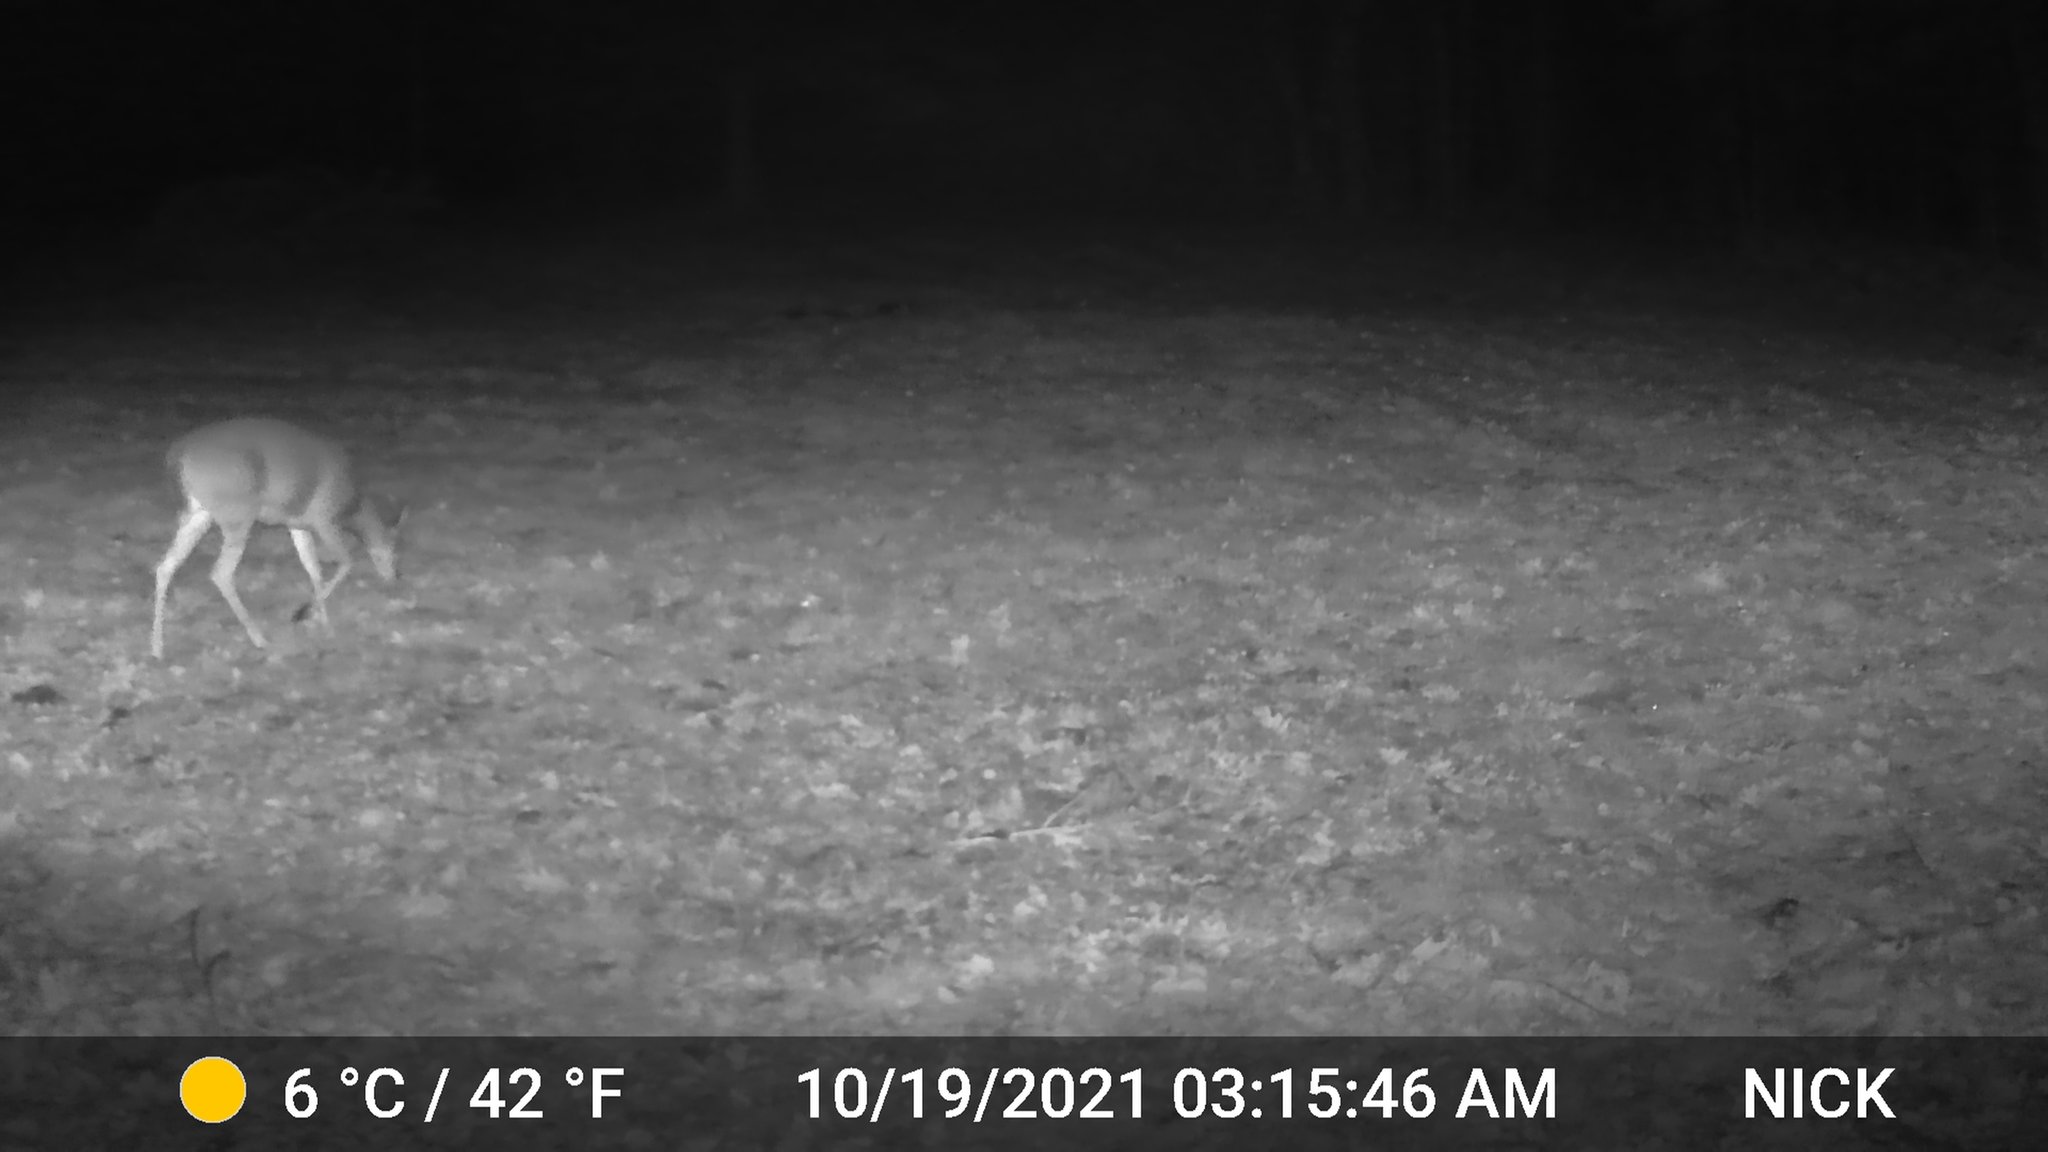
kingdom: Animalia
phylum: Chordata
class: Mammalia
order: Artiodactyla
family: Cervidae
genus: Odocoileus
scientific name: Odocoileus virginianus
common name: White-tailed deer
